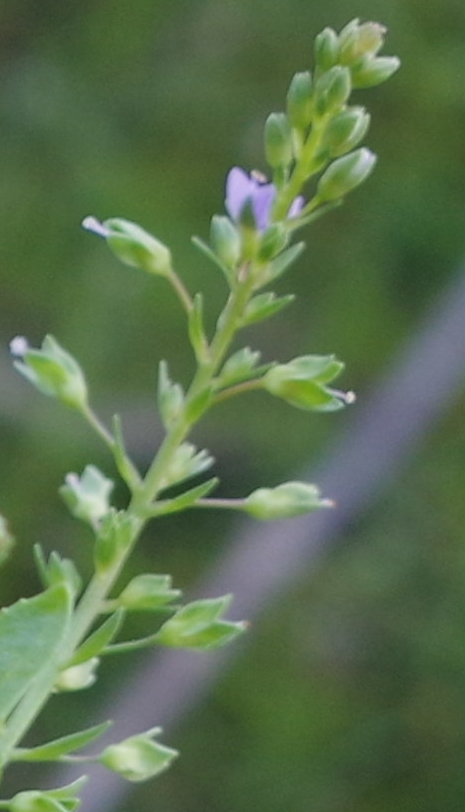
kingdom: Plantae
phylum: Tracheophyta
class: Magnoliopsida
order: Lamiales
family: Plantaginaceae
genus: Veronica
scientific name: Veronica anagallis-aquatica
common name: Water speedwell
